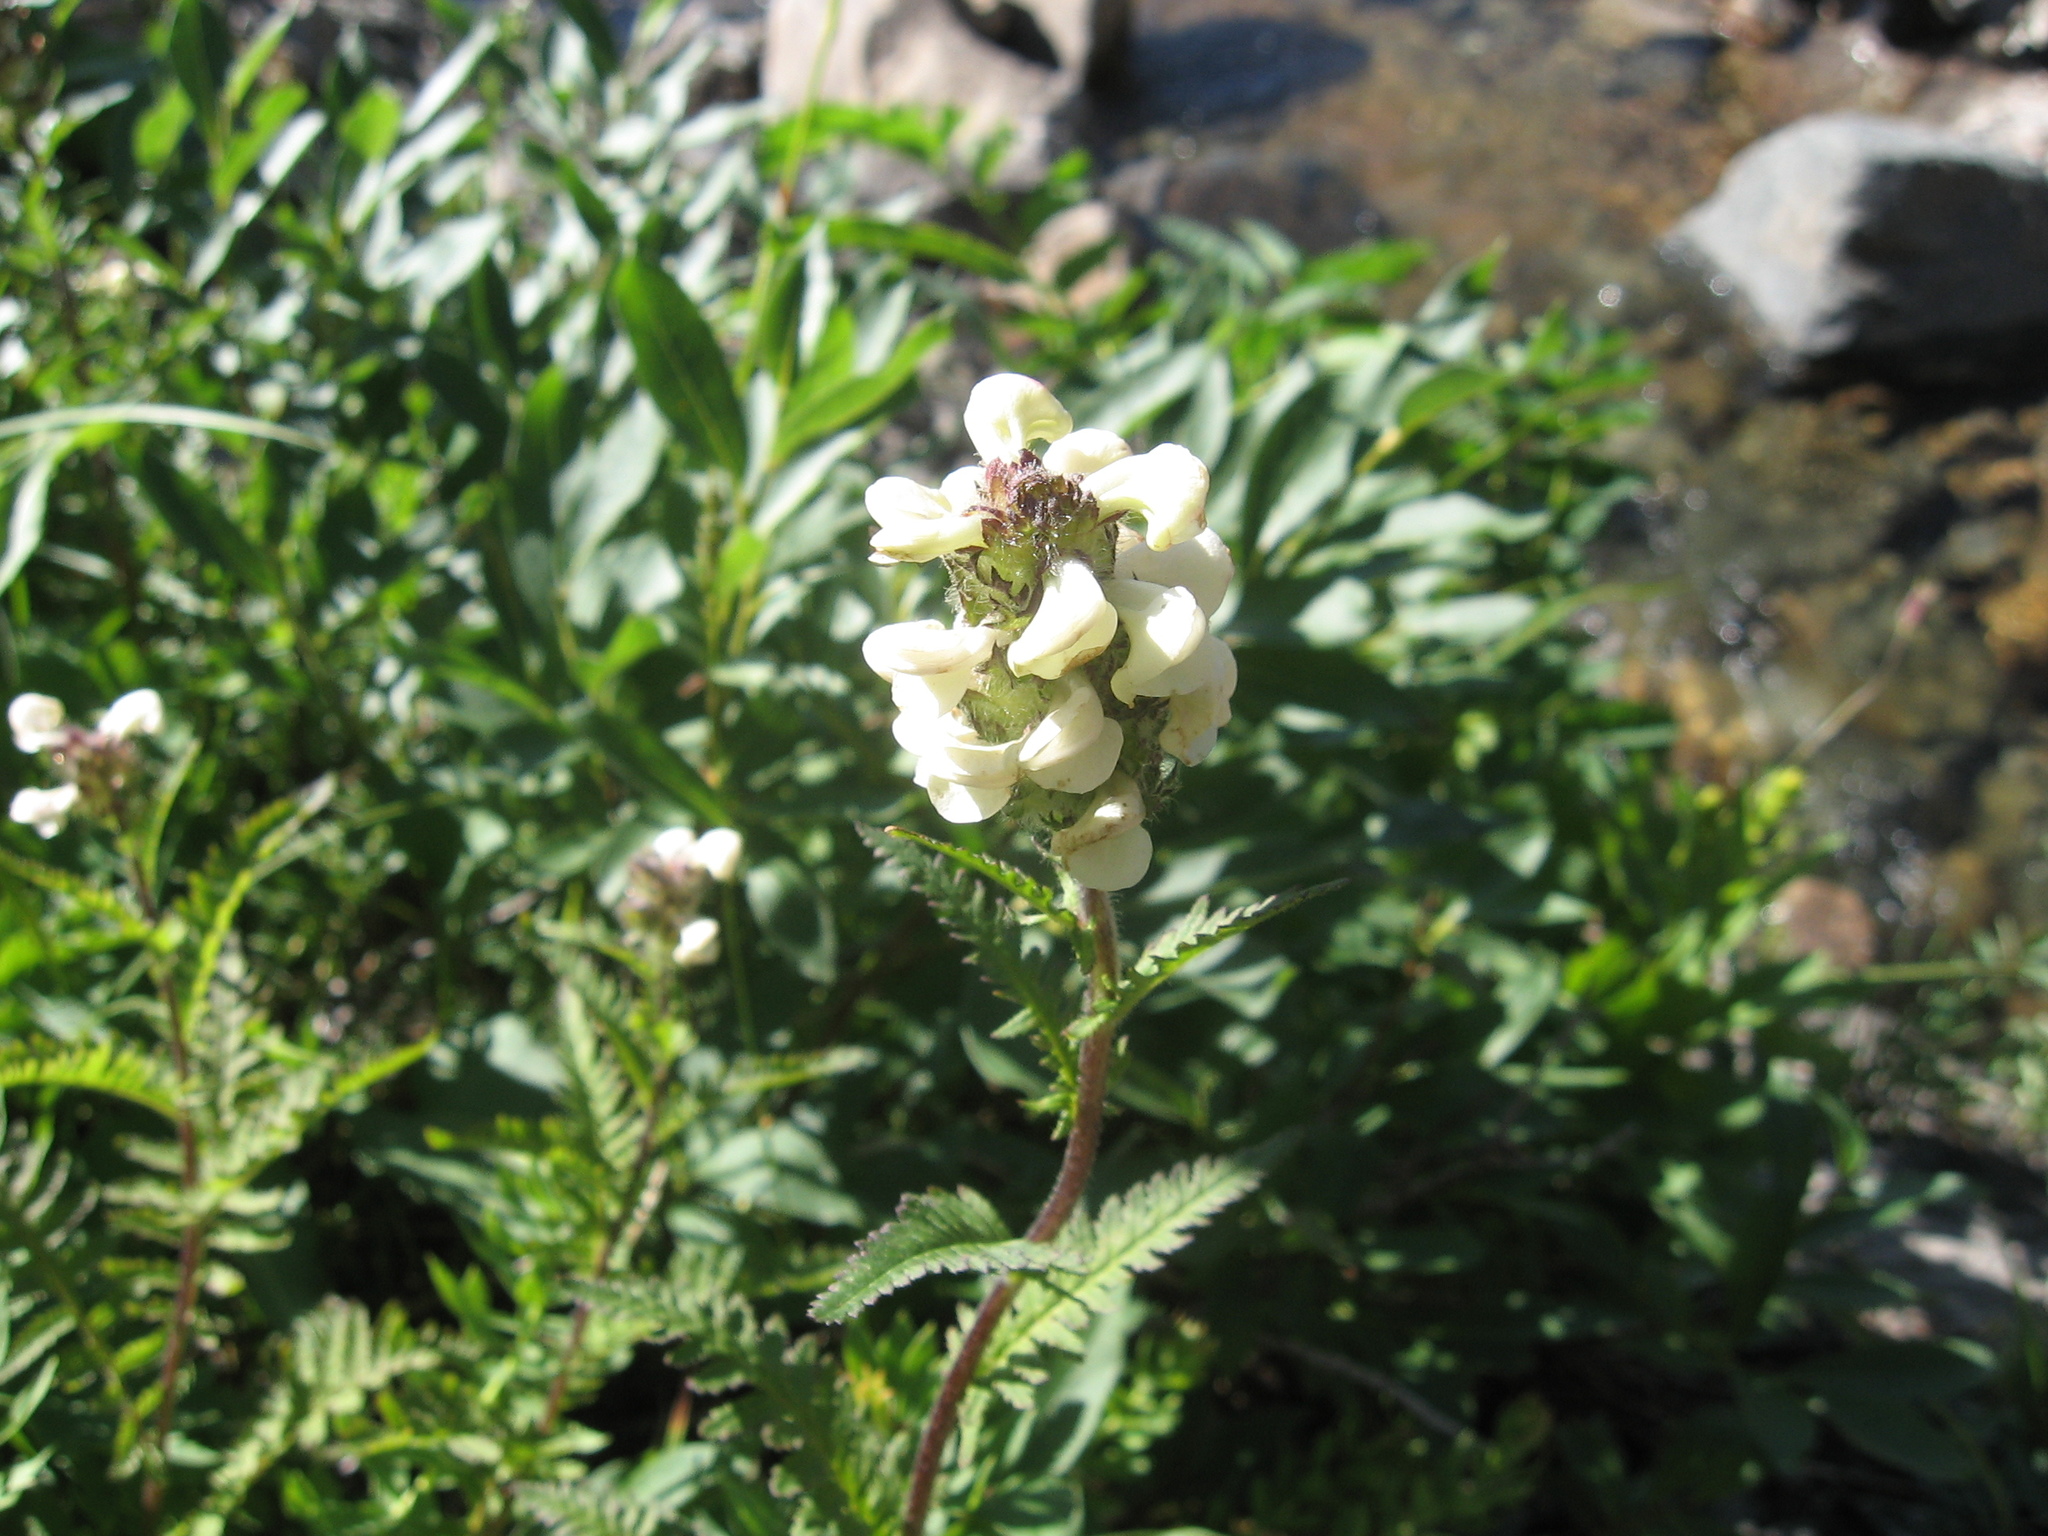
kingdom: Plantae
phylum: Tracheophyta
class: Magnoliopsida
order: Lamiales
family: Orobanchaceae
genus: Pedicularis
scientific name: Pedicularis brachystachys
